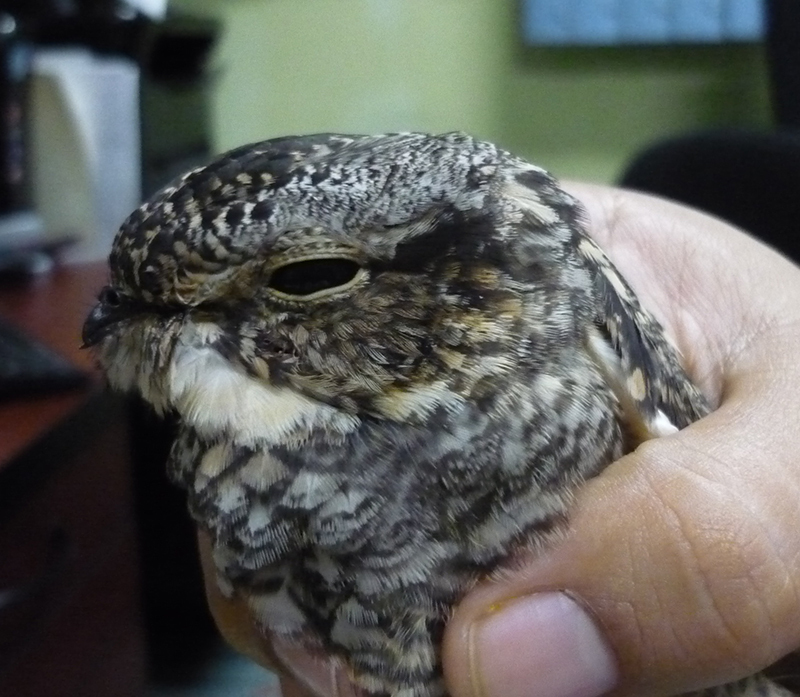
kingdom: Animalia
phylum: Chordata
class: Aves
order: Caprimulgiformes
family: Caprimulgidae
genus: Chordeiles
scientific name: Chordeiles acutipennis
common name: Lesser nighthawk
